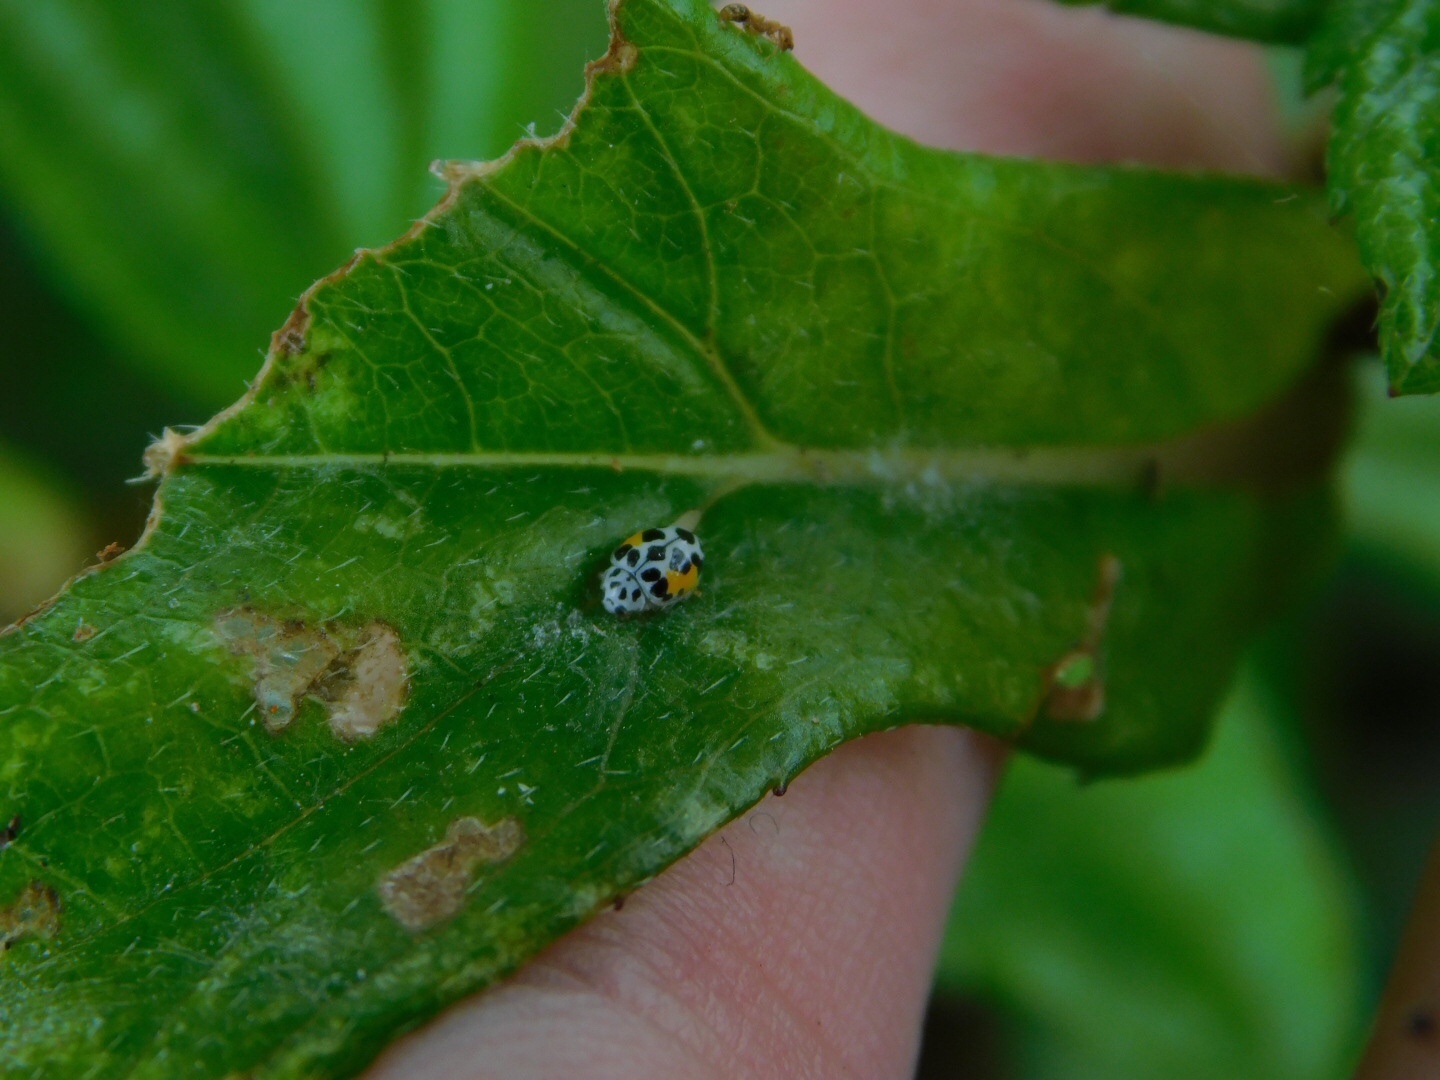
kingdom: Animalia
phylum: Arthropoda
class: Insecta
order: Coleoptera
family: Coccinellidae
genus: Psyllobora
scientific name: Psyllobora nana
